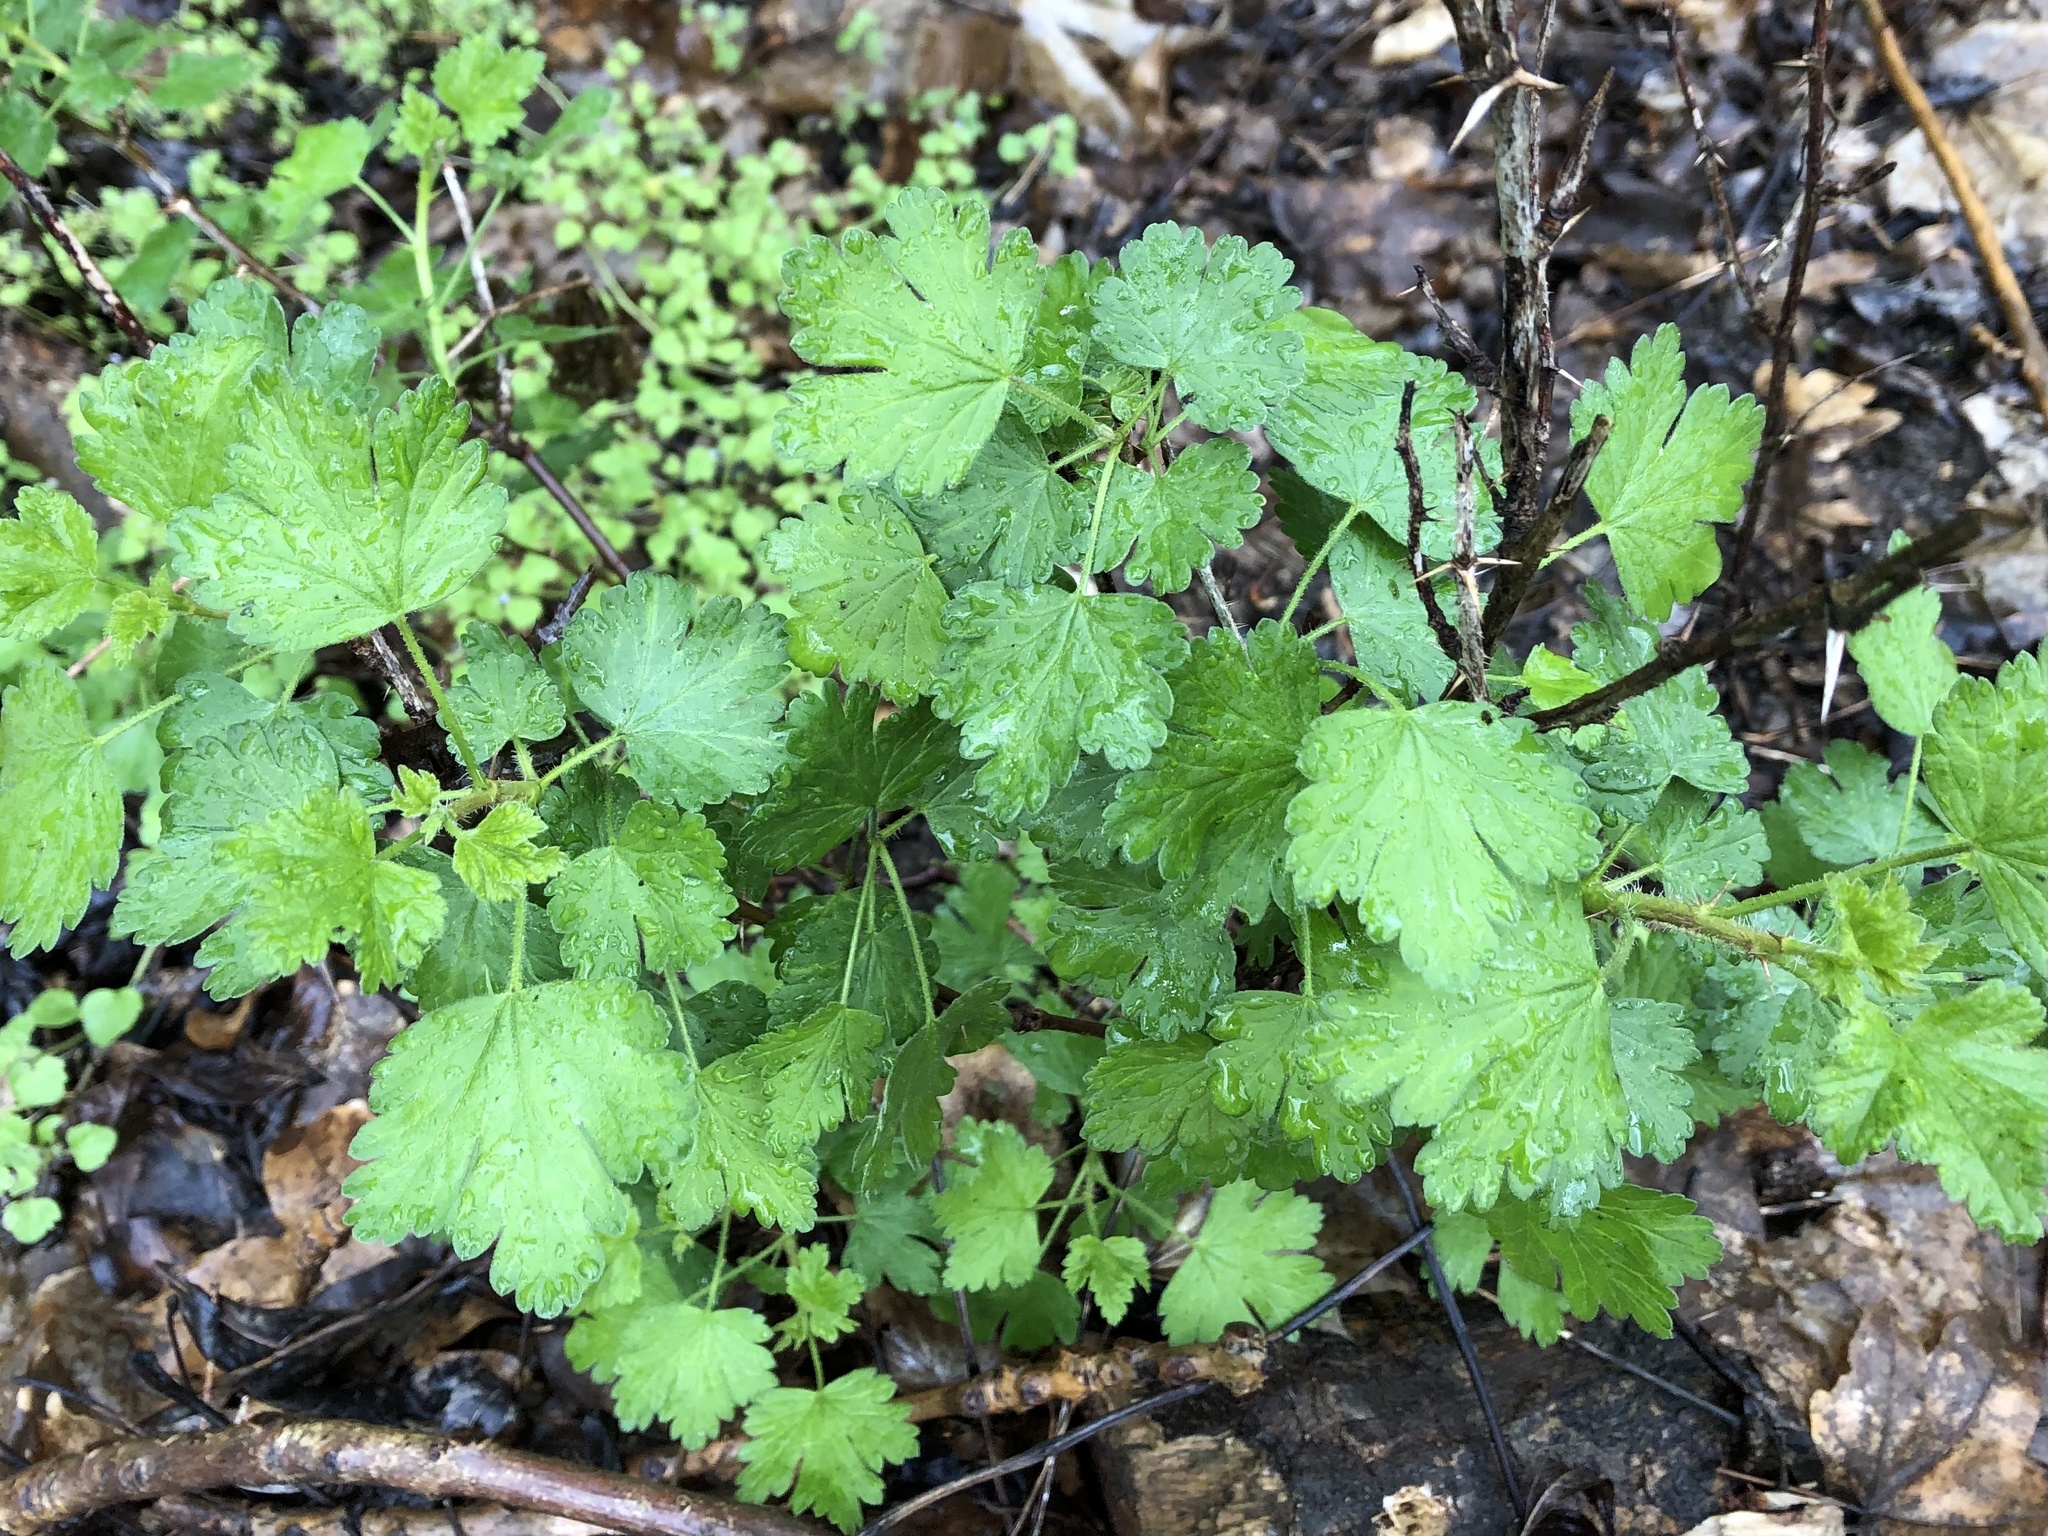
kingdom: Plantae
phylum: Tracheophyta
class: Magnoliopsida
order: Saxifragales
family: Grossulariaceae
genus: Ribes
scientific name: Ribes uva-crispa
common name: Gooseberry
